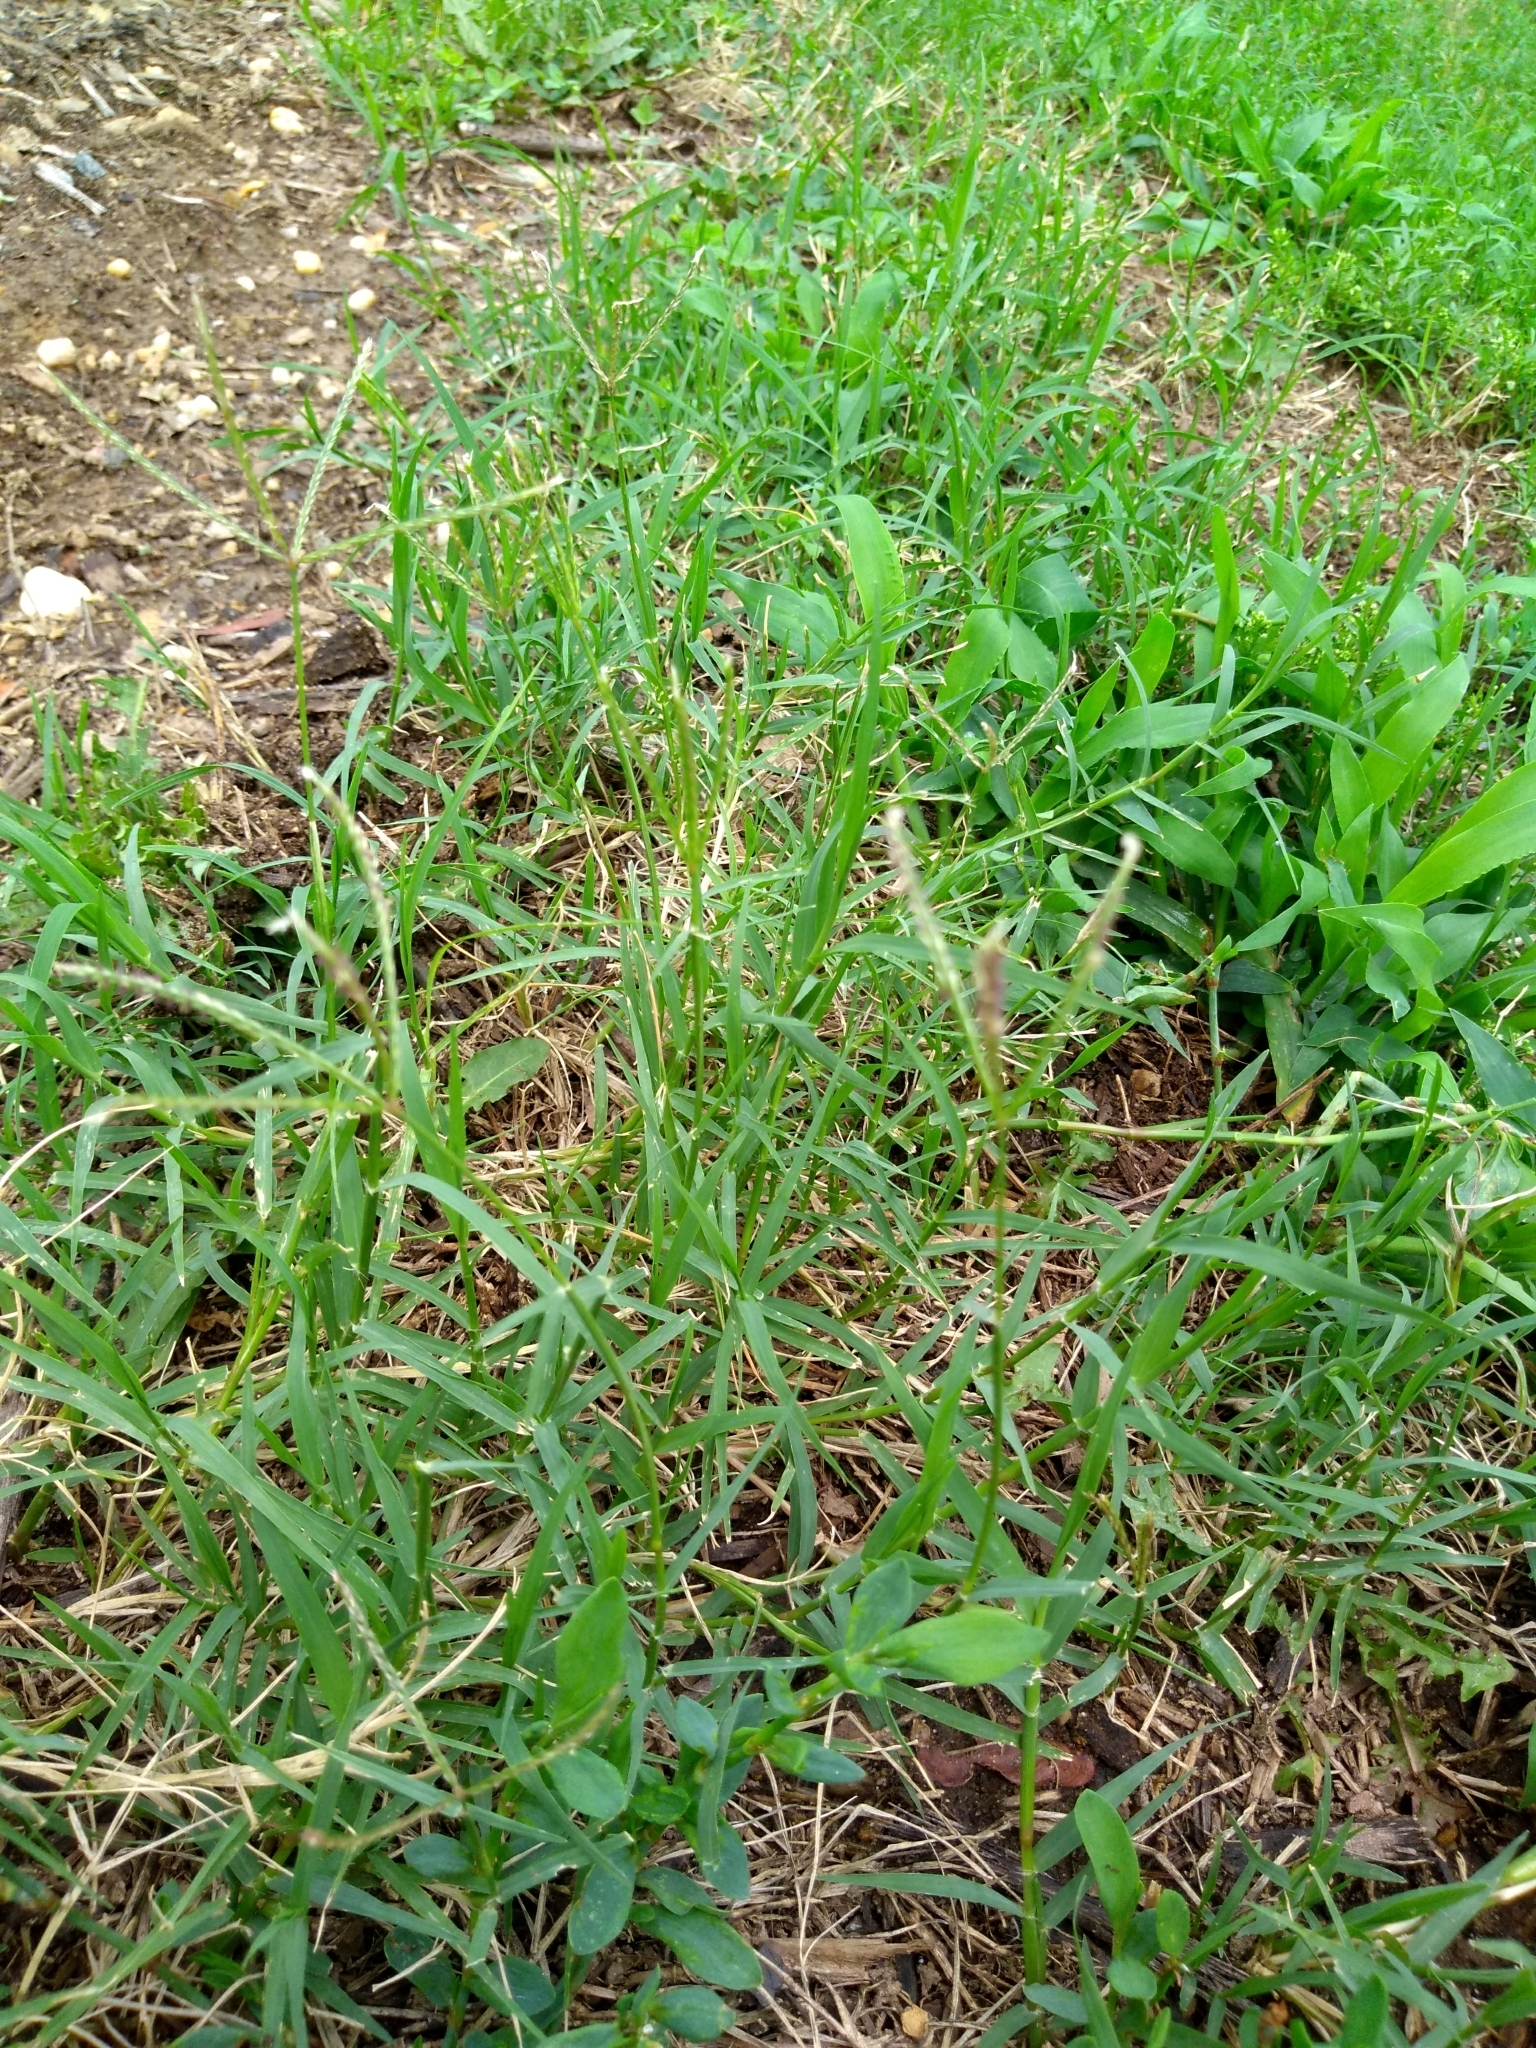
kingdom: Plantae
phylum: Tracheophyta
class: Liliopsida
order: Poales
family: Poaceae
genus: Cynodon
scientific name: Cynodon dactylon
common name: Bermuda grass
